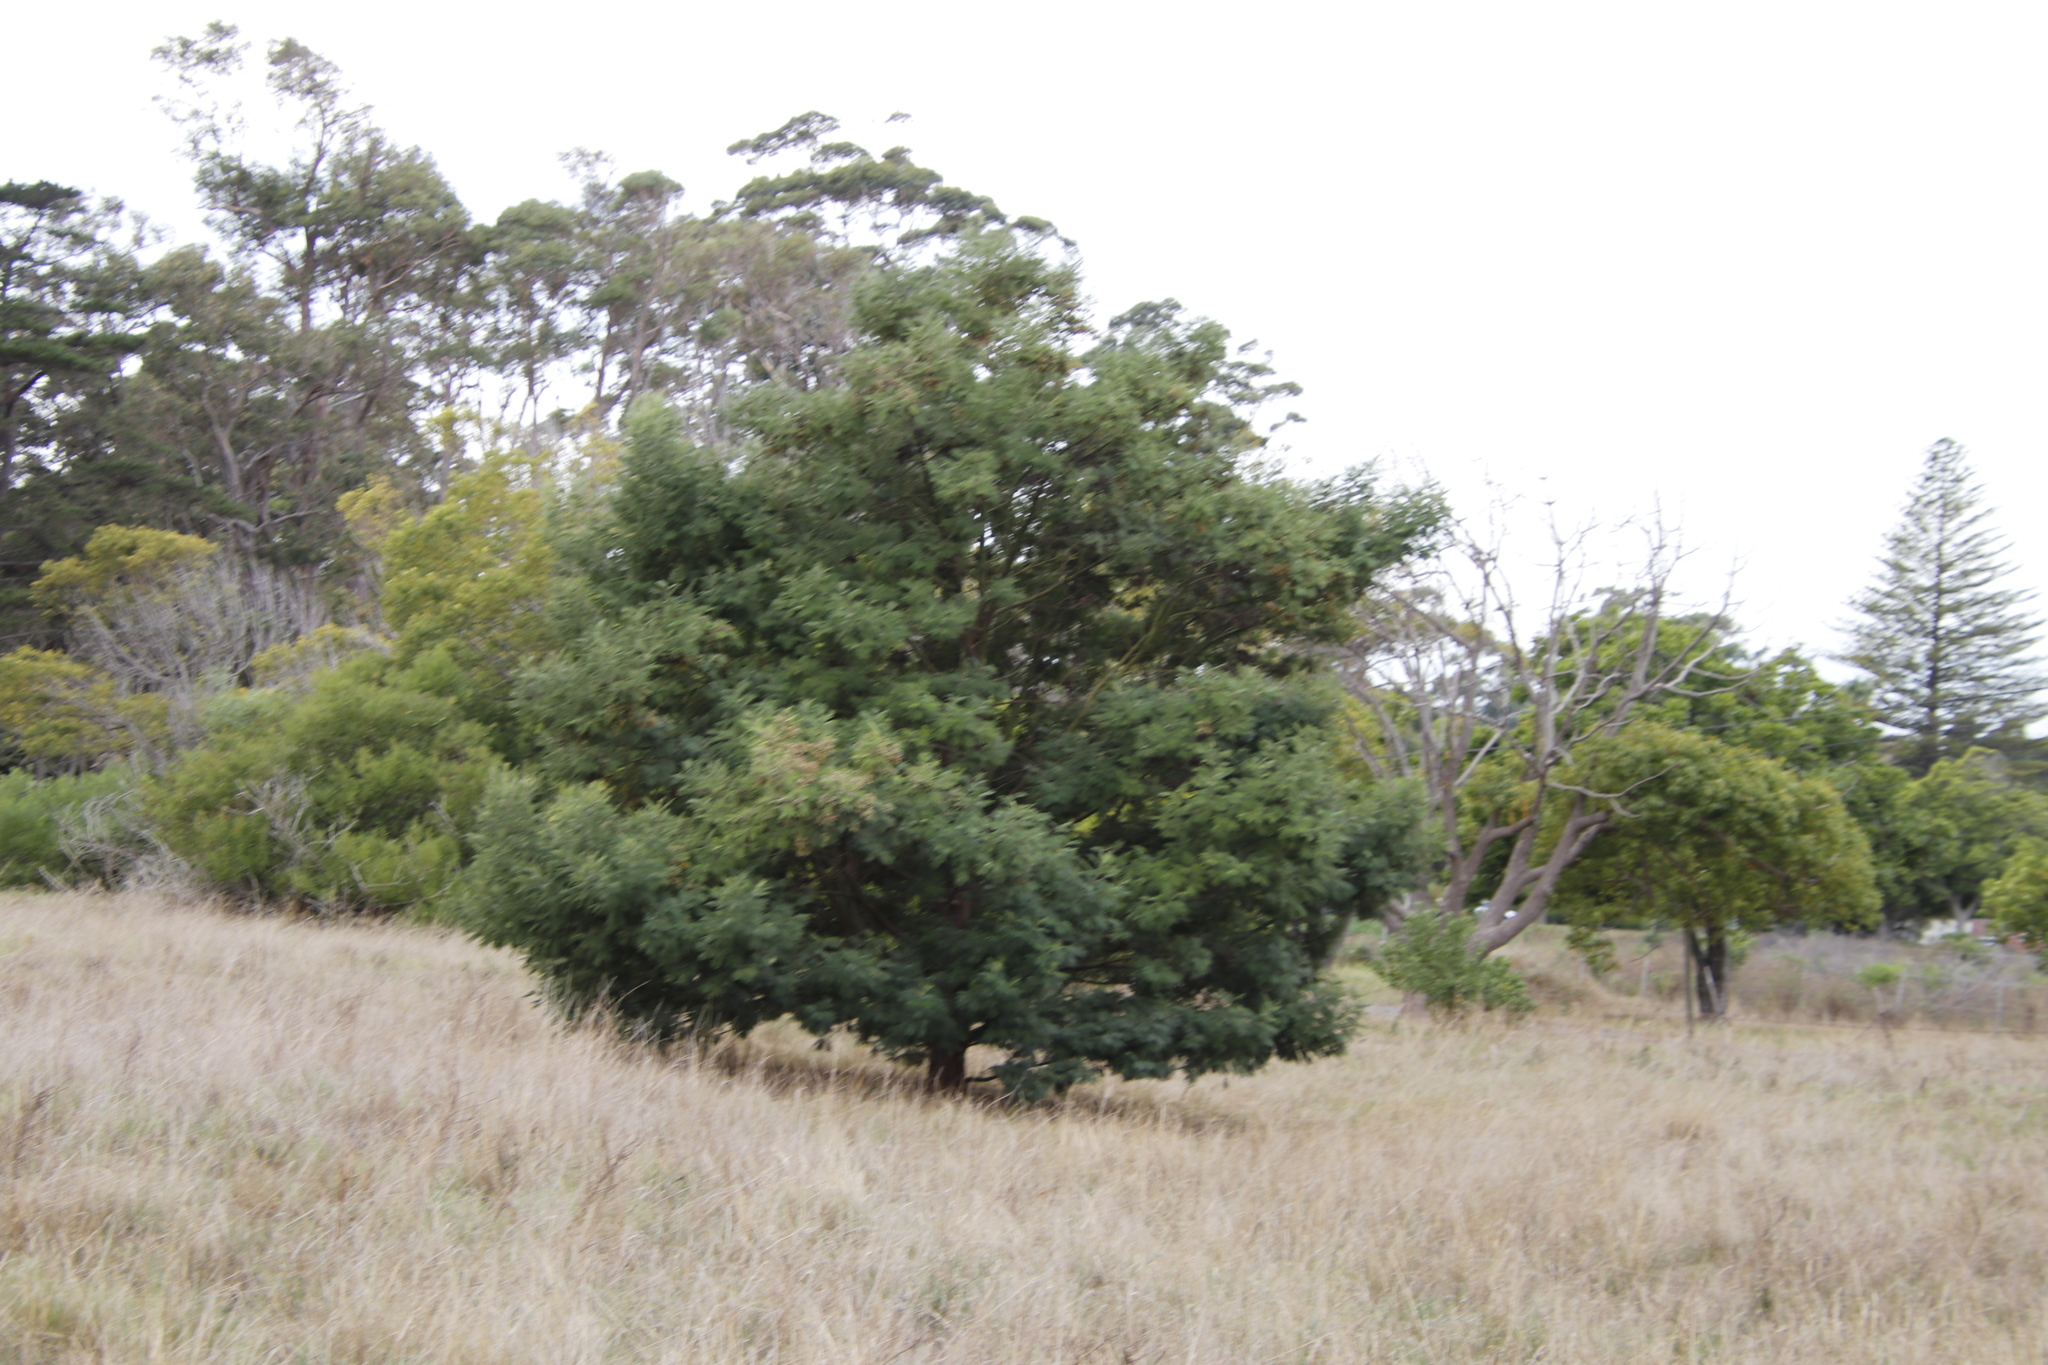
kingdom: Plantae
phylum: Tracheophyta
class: Magnoliopsida
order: Fabales
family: Fabaceae
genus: Acacia
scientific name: Acacia mearnsii
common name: Black wattle
